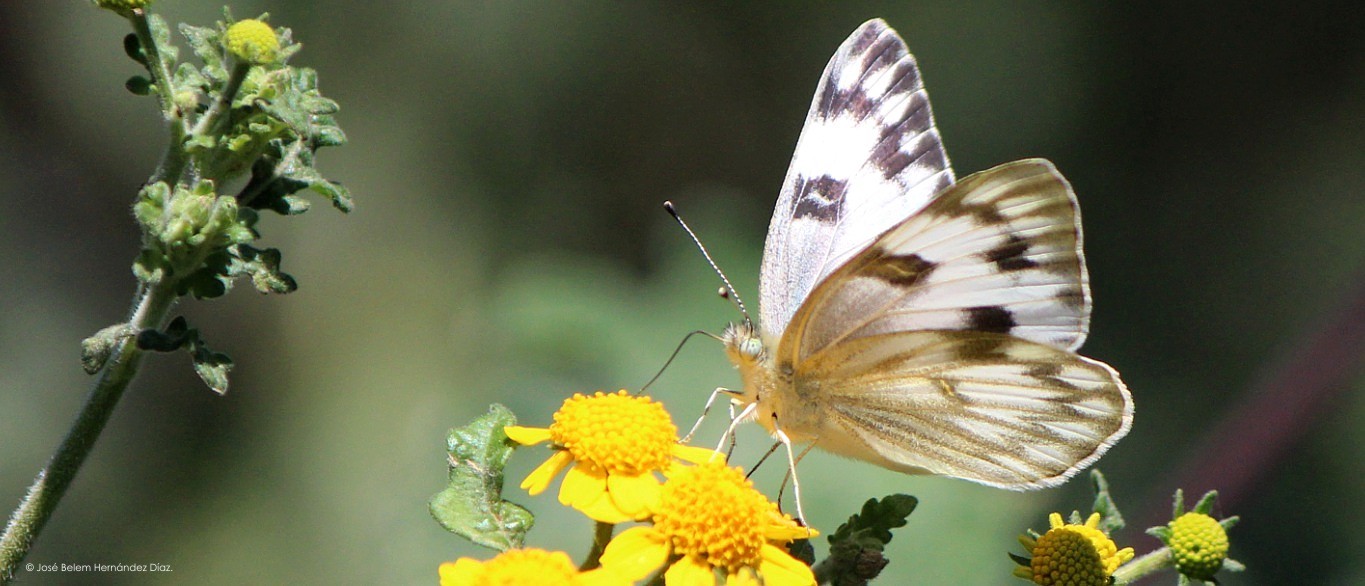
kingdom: Animalia
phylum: Arthropoda
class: Insecta
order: Lepidoptera
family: Pieridae
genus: Pontia
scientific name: Pontia protodice
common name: Checkered white
